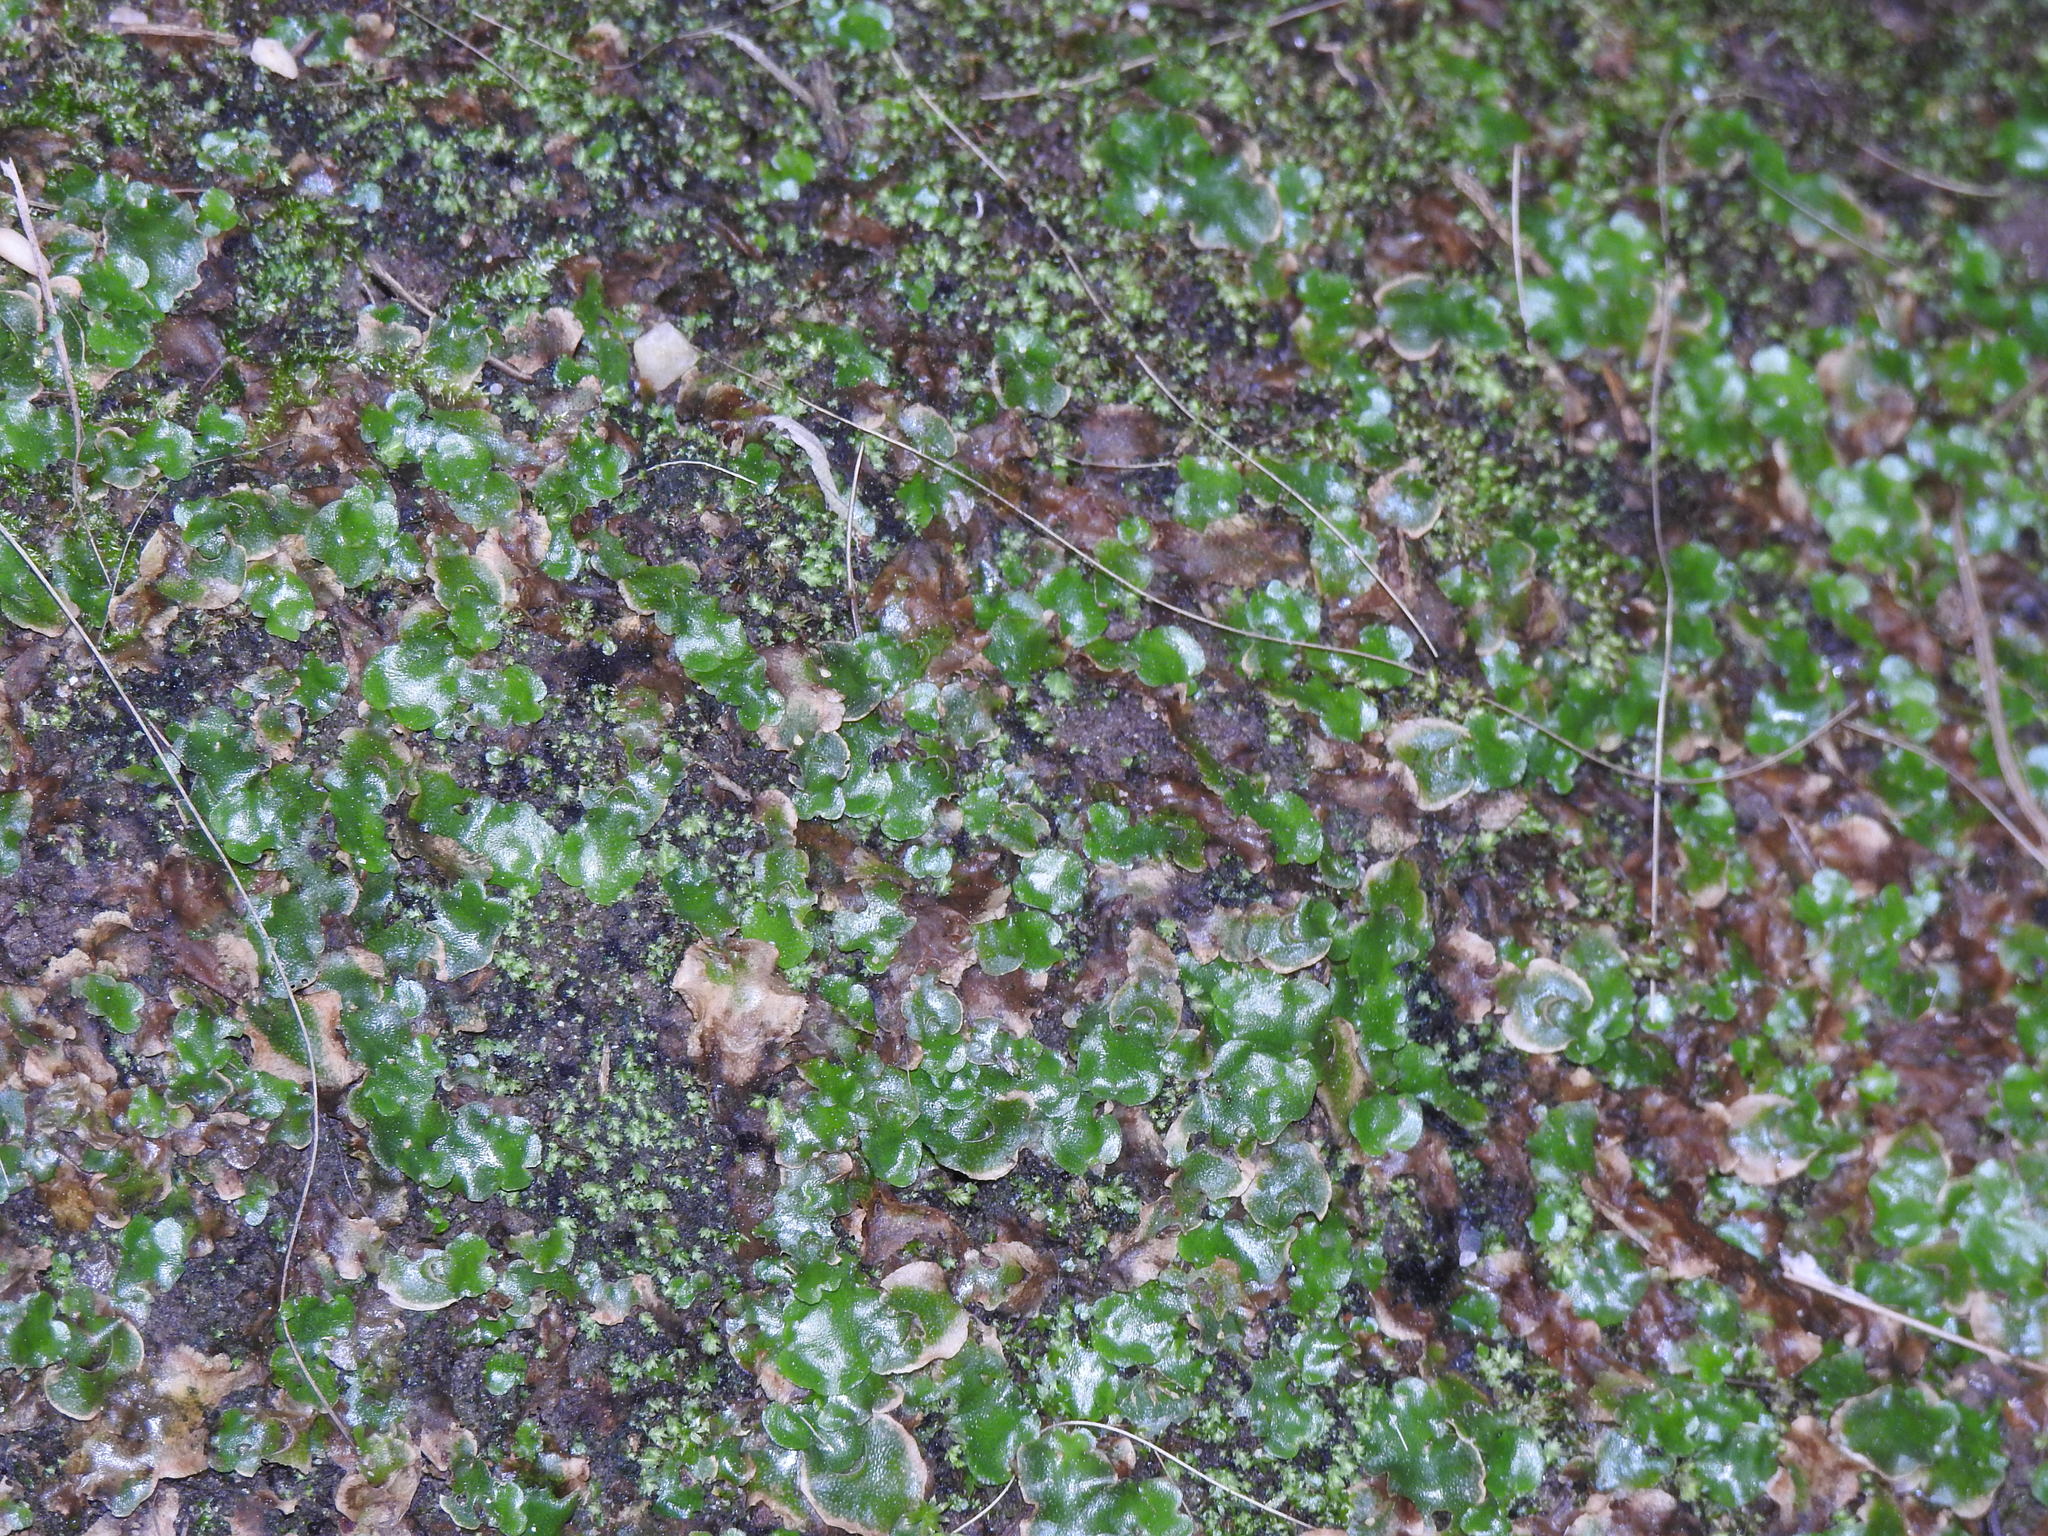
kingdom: Plantae
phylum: Marchantiophyta
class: Marchantiopsida
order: Lunulariales
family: Lunulariaceae
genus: Lunularia
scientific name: Lunularia cruciata
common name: Crescent-cup liverwort
